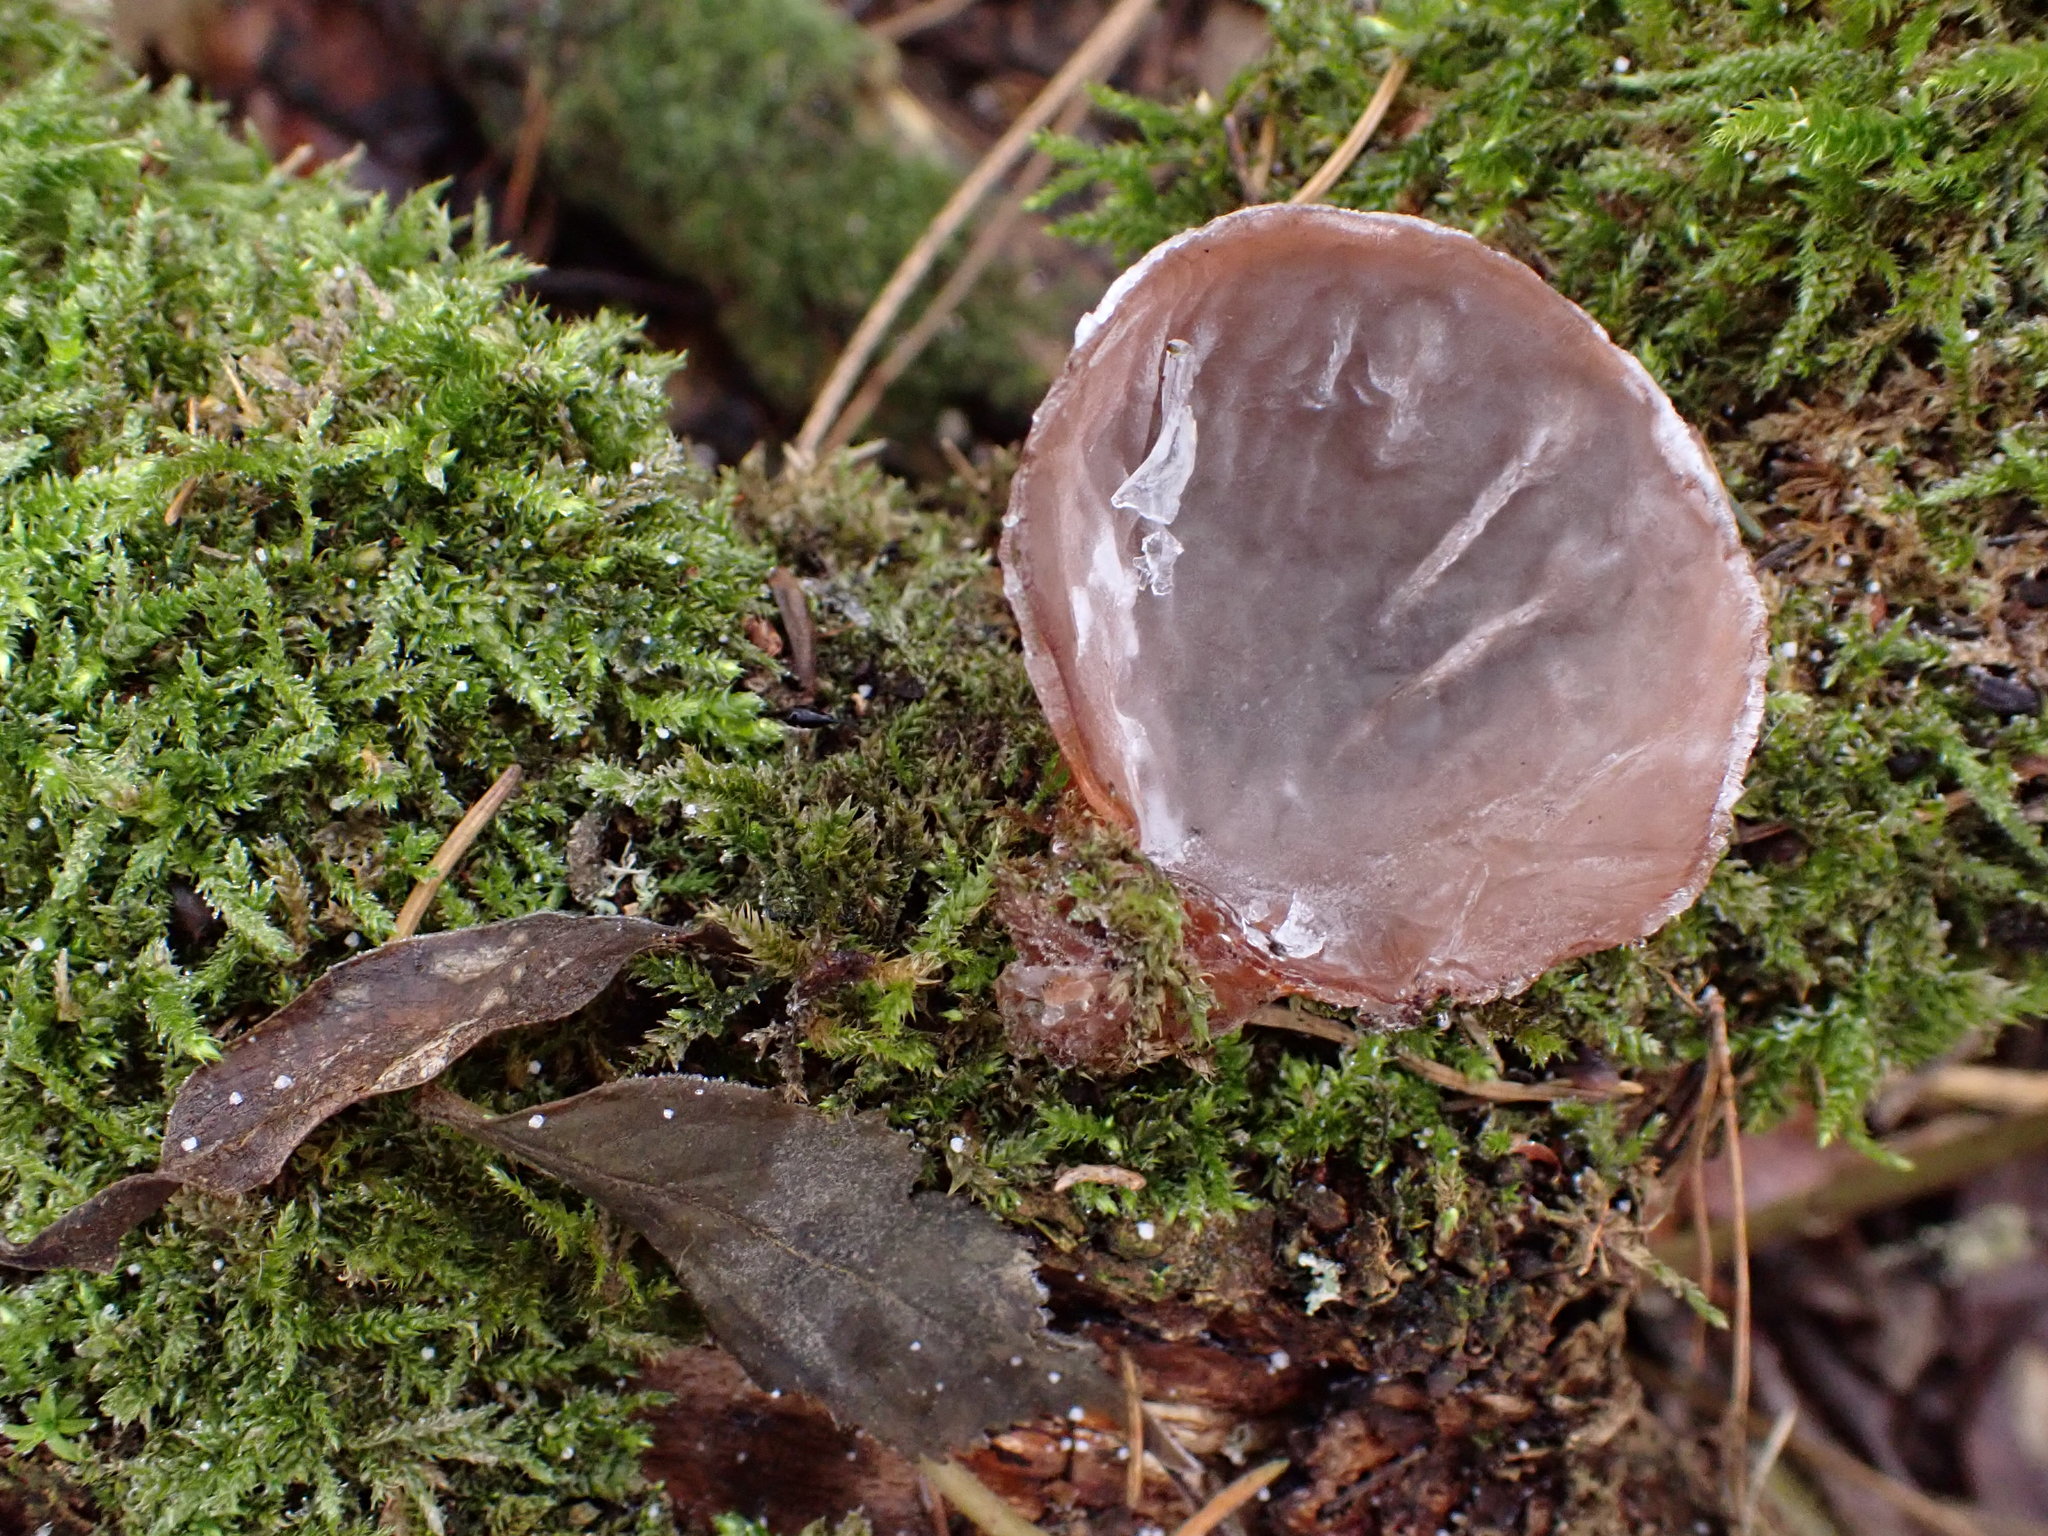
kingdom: Fungi
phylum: Basidiomycota
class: Agaricomycetes
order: Auriculariales
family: Auriculariaceae
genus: Auricularia
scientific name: Auricularia auricula-judae
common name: Jelly ear
